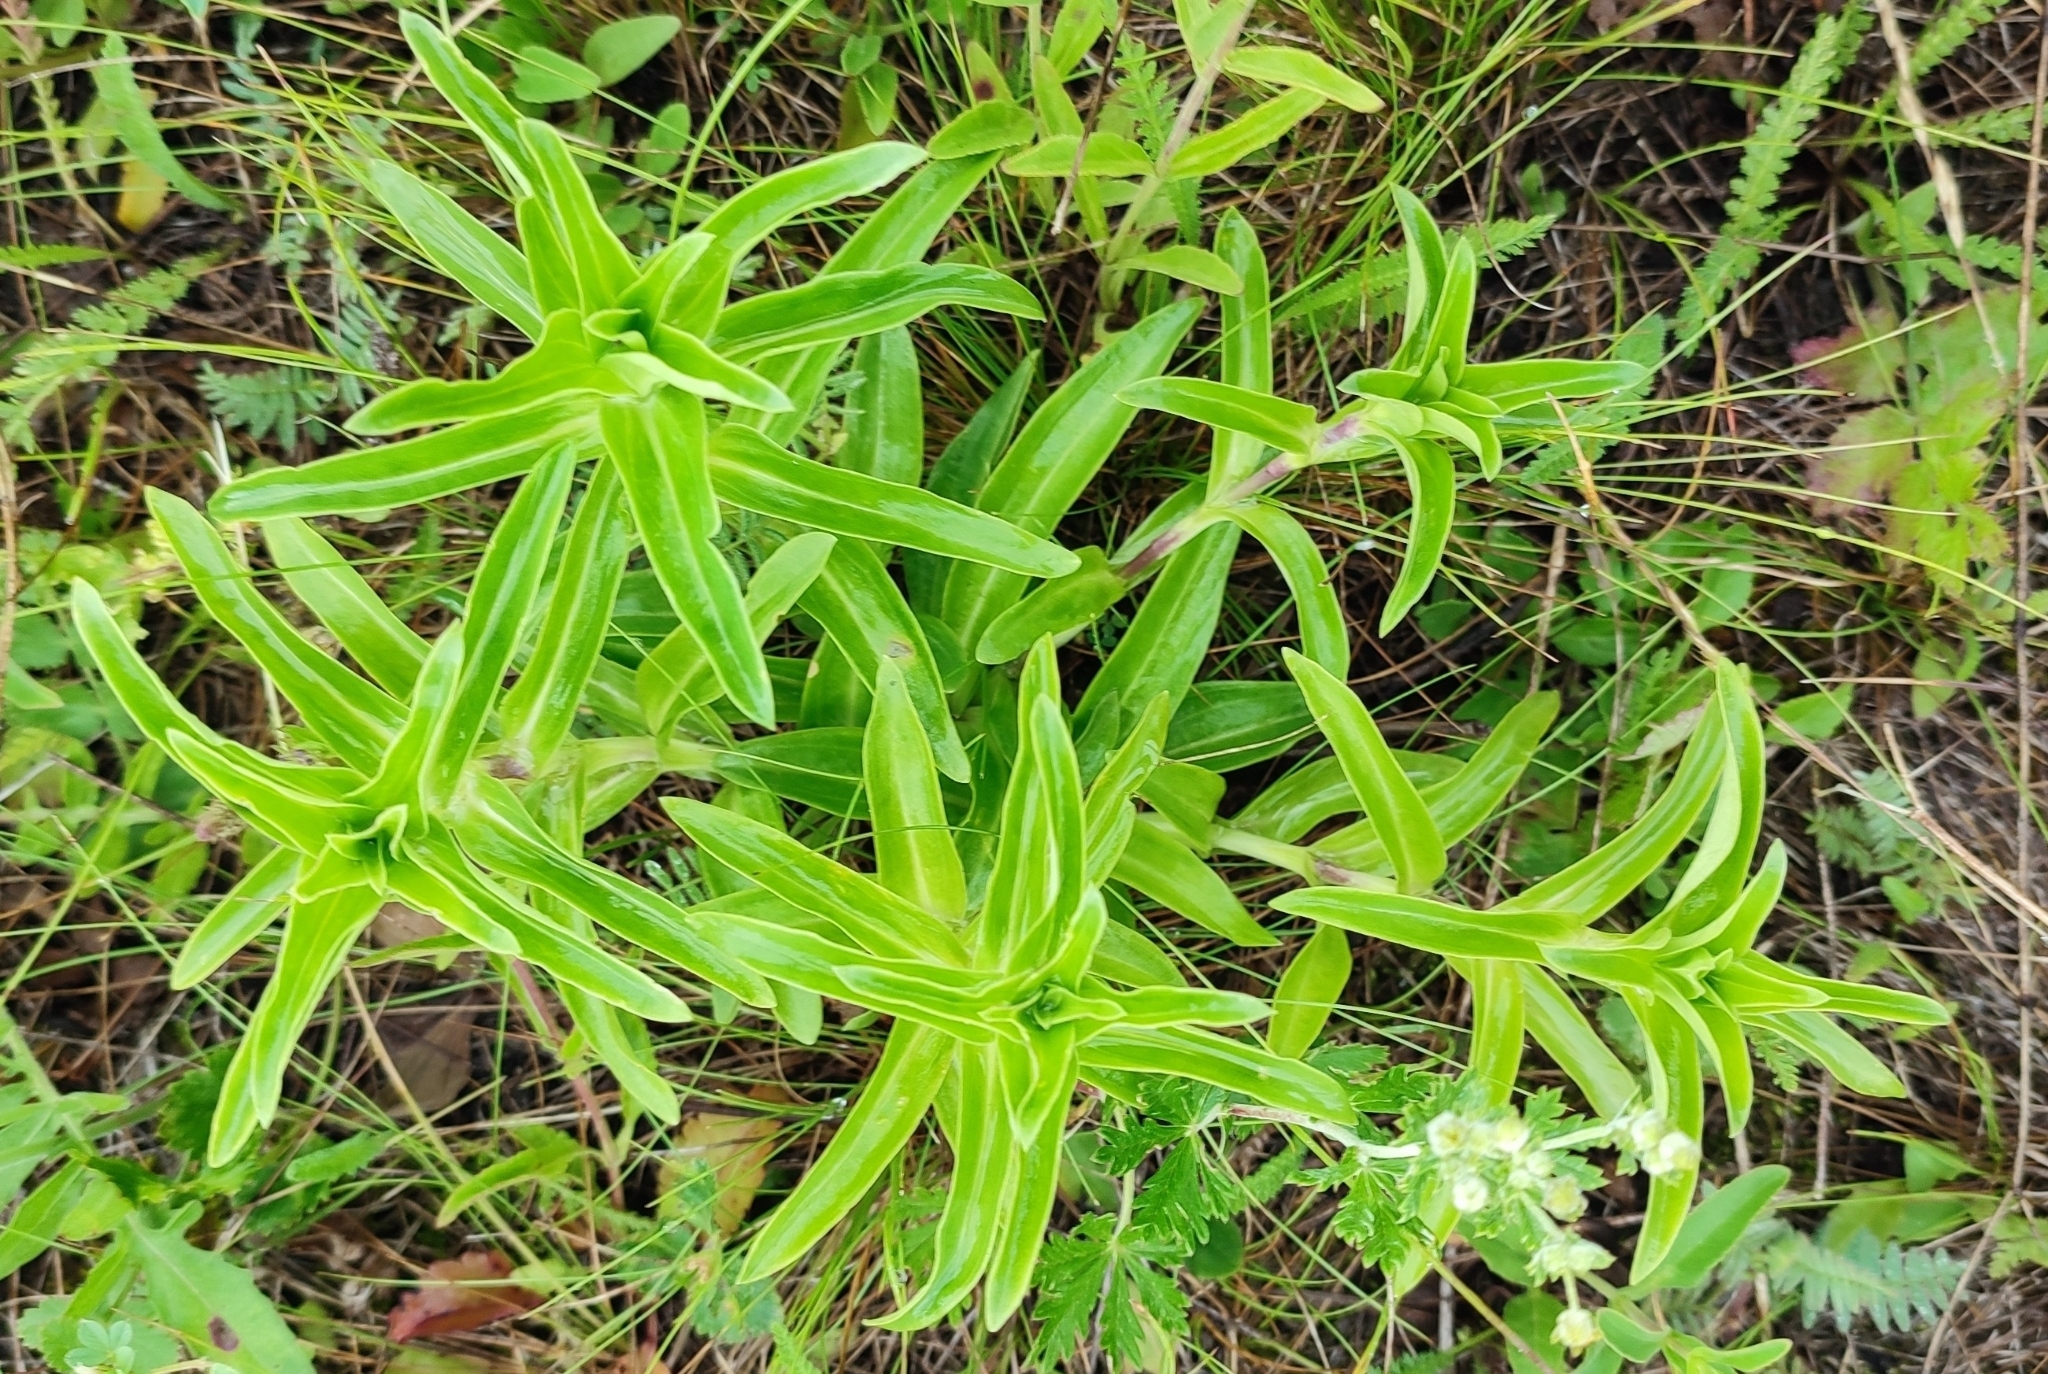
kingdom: Plantae
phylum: Tracheophyta
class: Magnoliopsida
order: Gentianales
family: Gentianaceae
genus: Gentiana
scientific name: Gentiana cruciata
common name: Cross gentian
